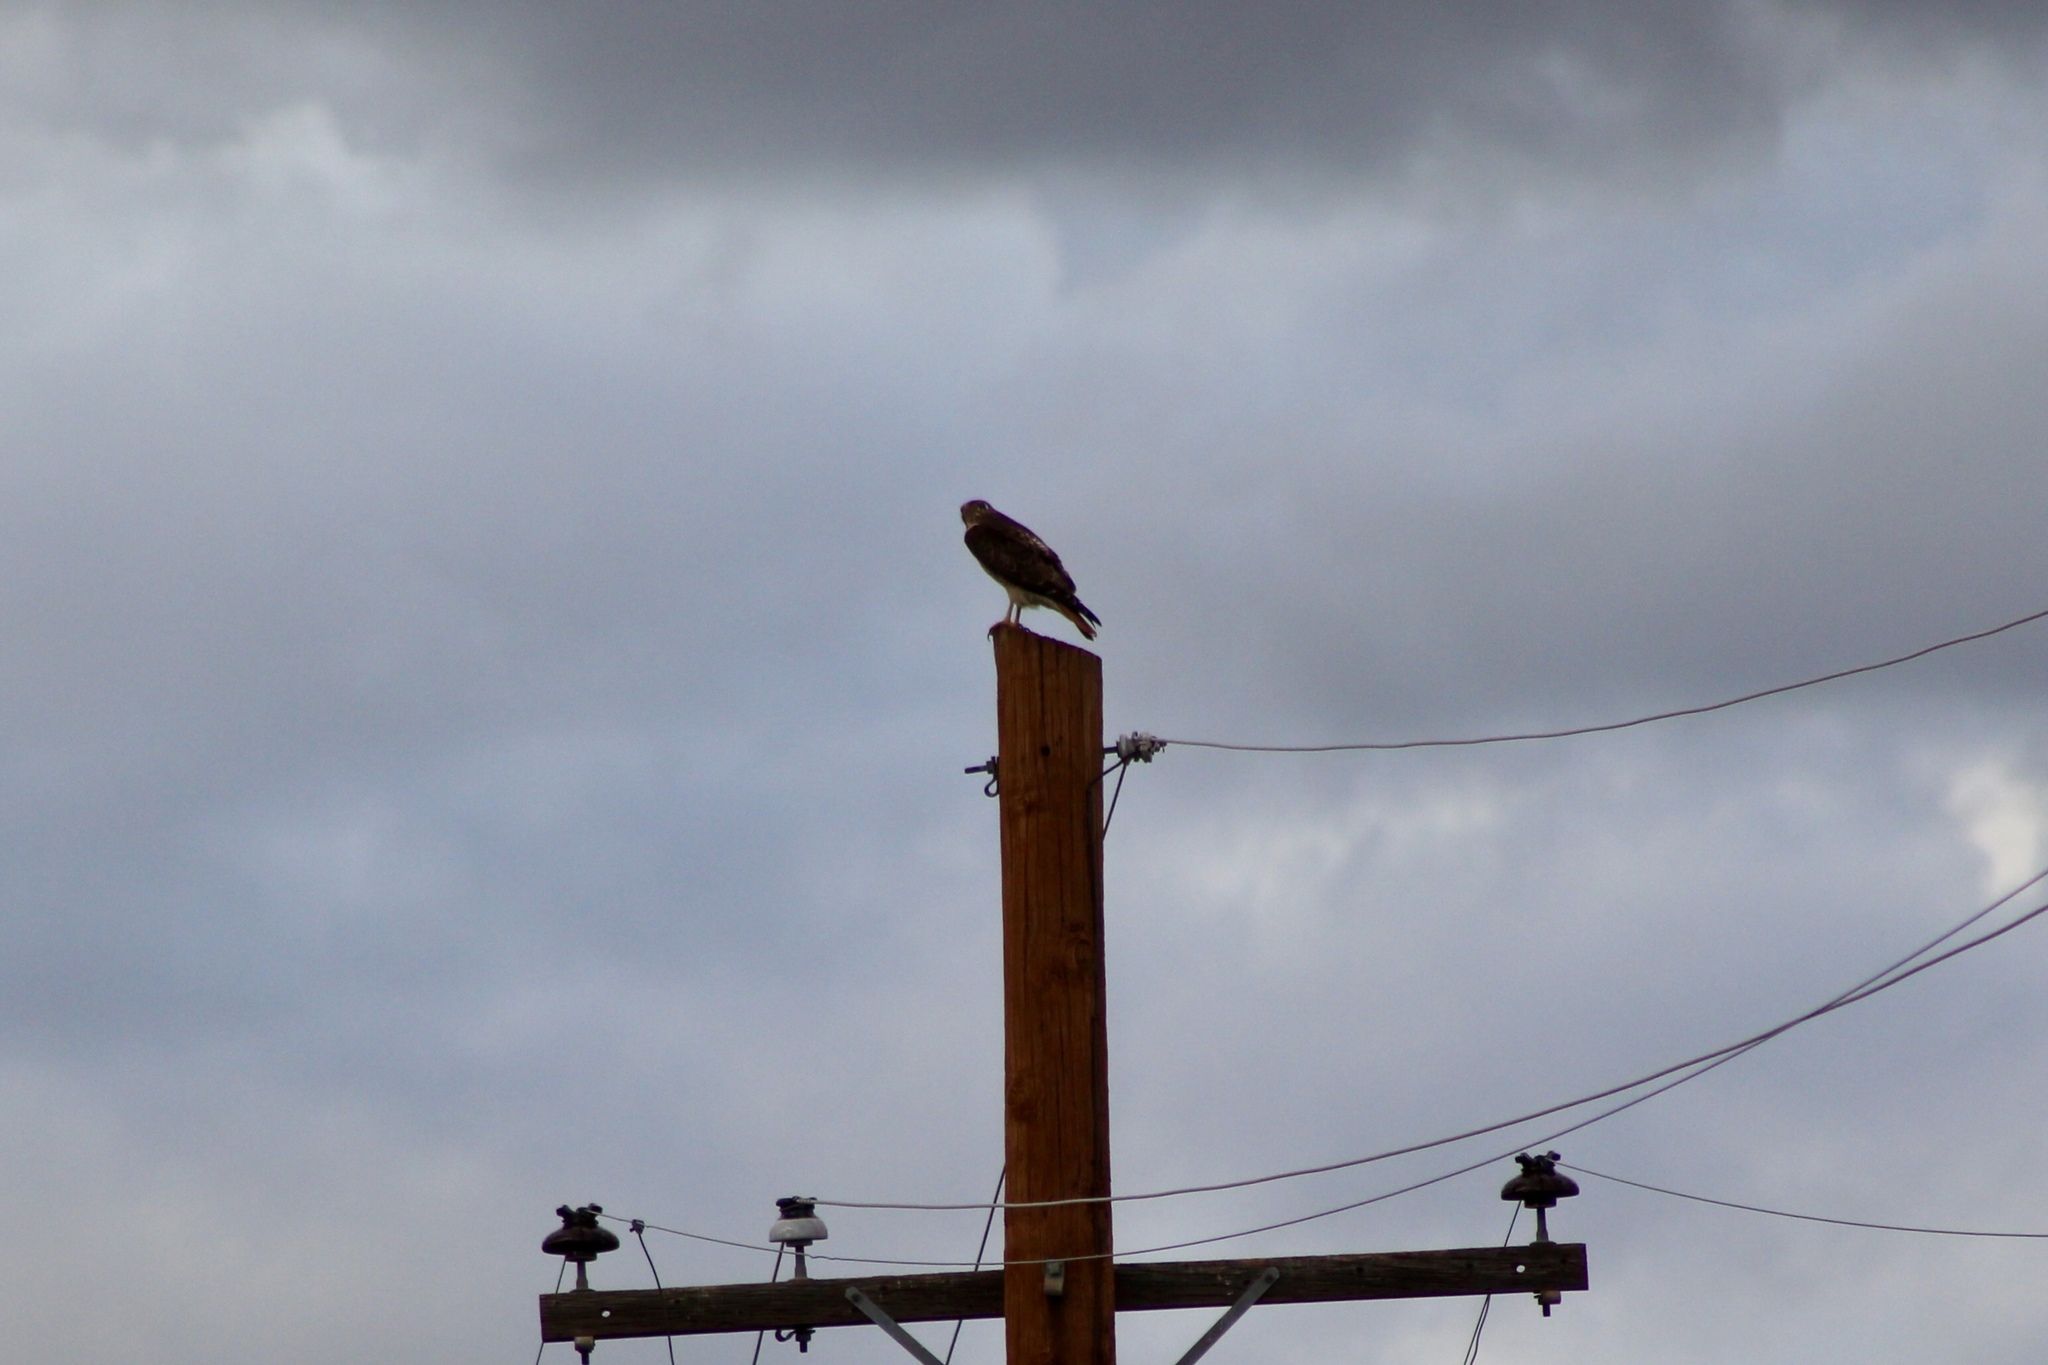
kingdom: Animalia
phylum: Chordata
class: Aves
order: Accipitriformes
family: Accipitridae
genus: Buteo
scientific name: Buteo jamaicensis
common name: Red-tailed hawk
